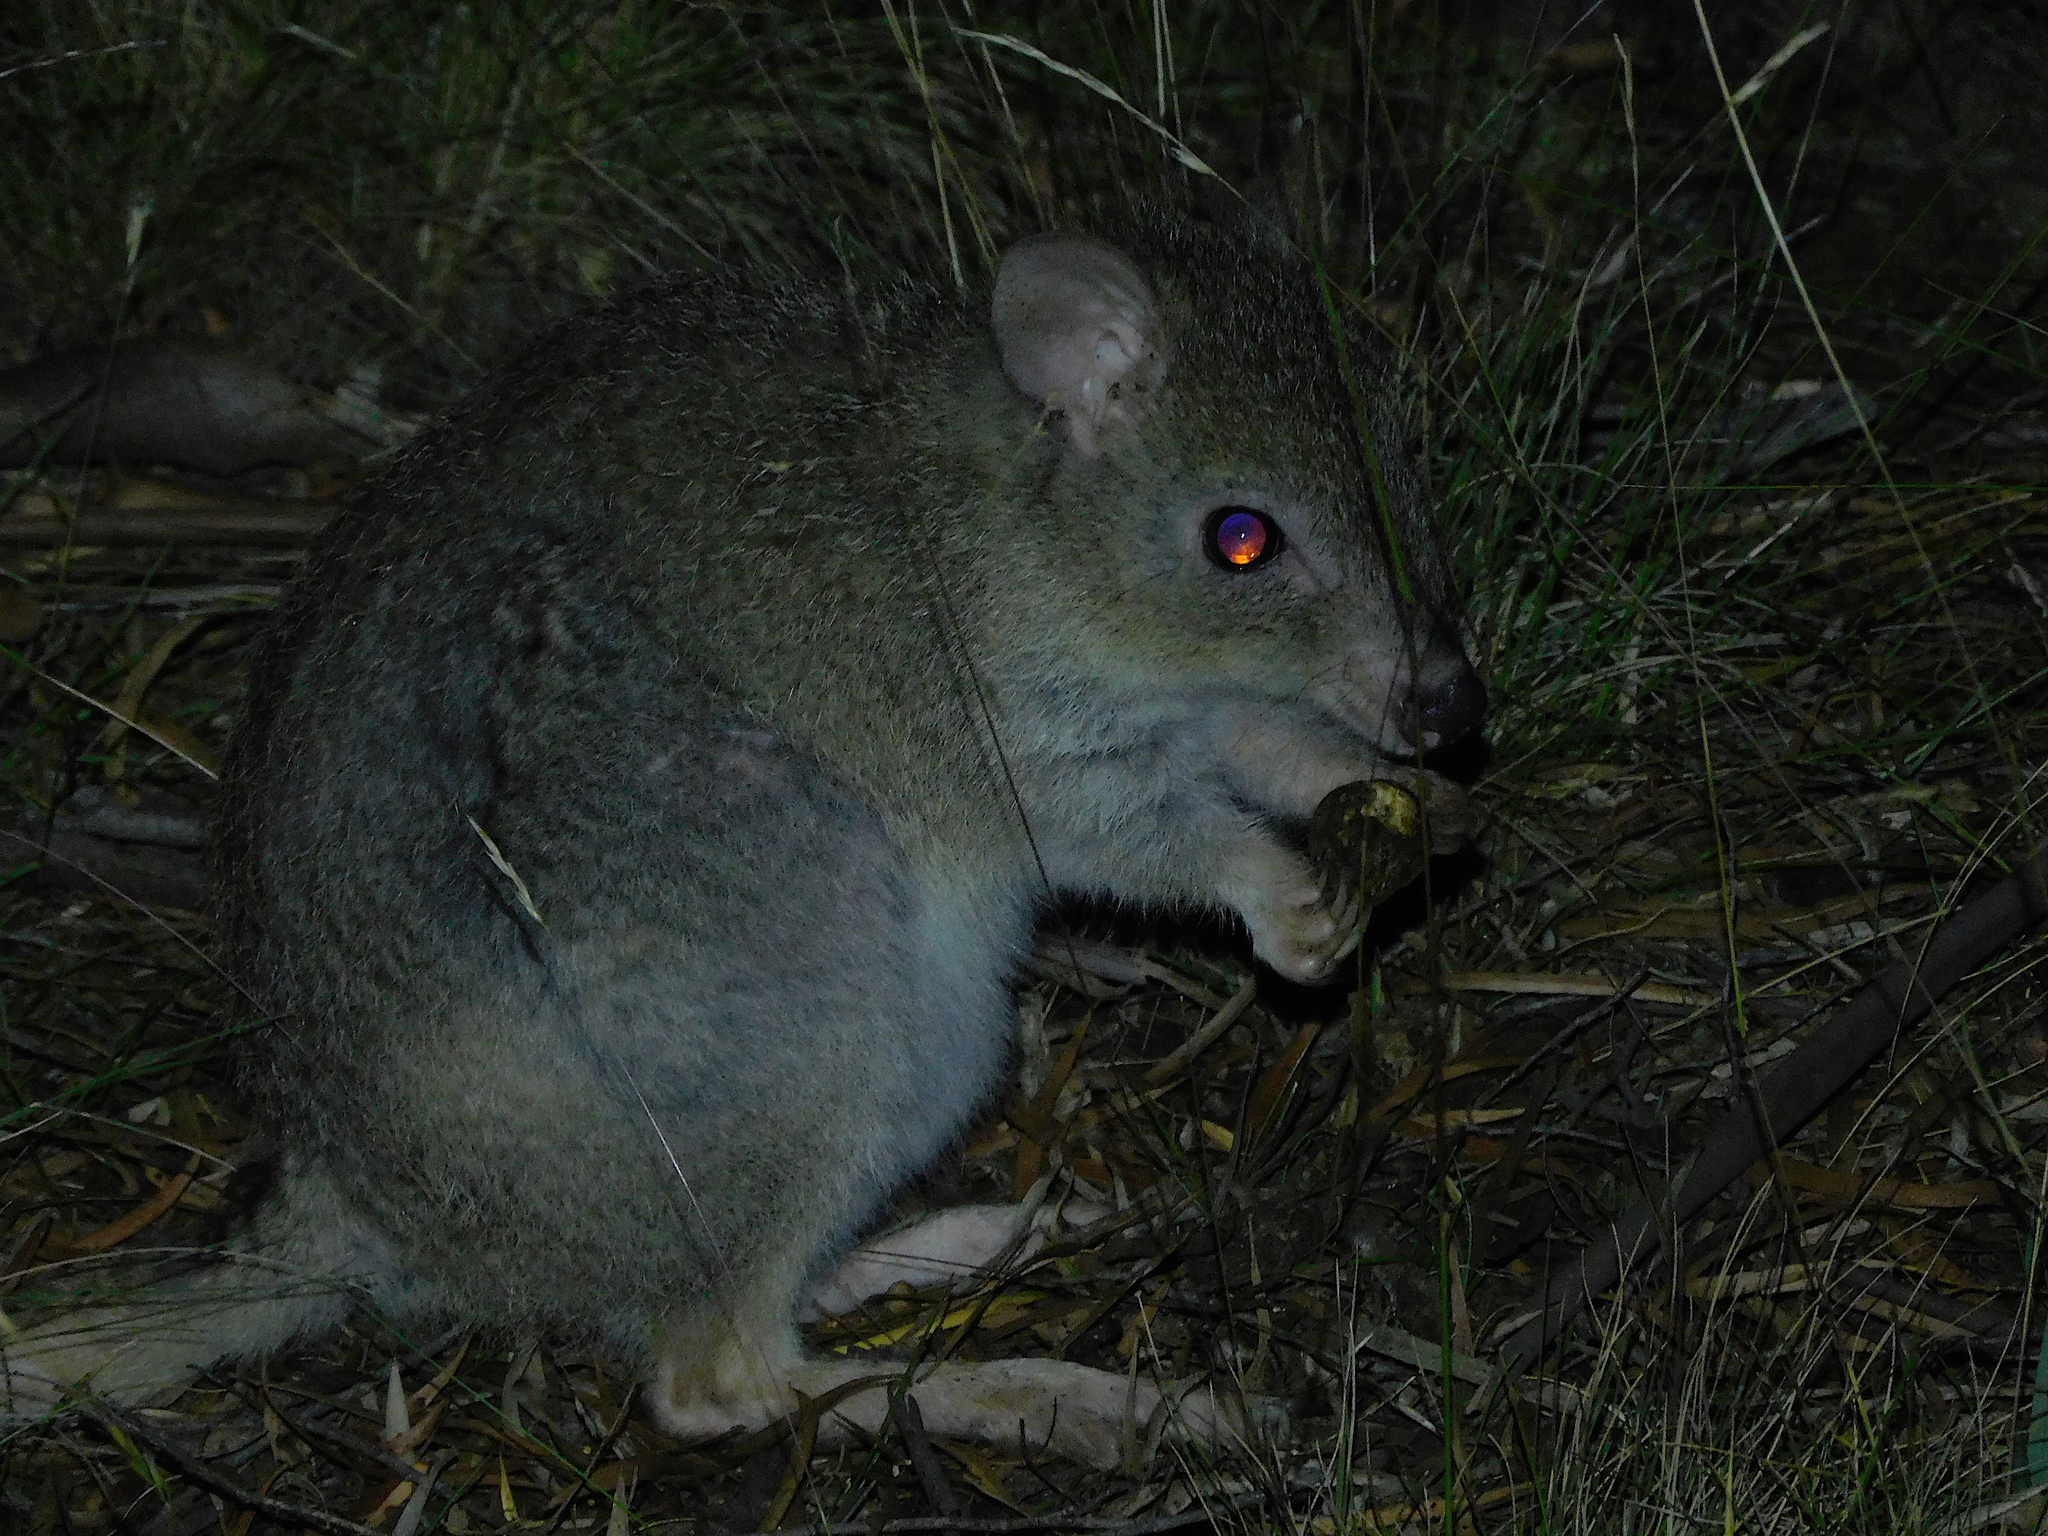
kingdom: Animalia
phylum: Chordata
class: Mammalia
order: Diprotodontia
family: Potoroidae
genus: Bettongia
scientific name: Bettongia gaimardi
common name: Eastern bettong
